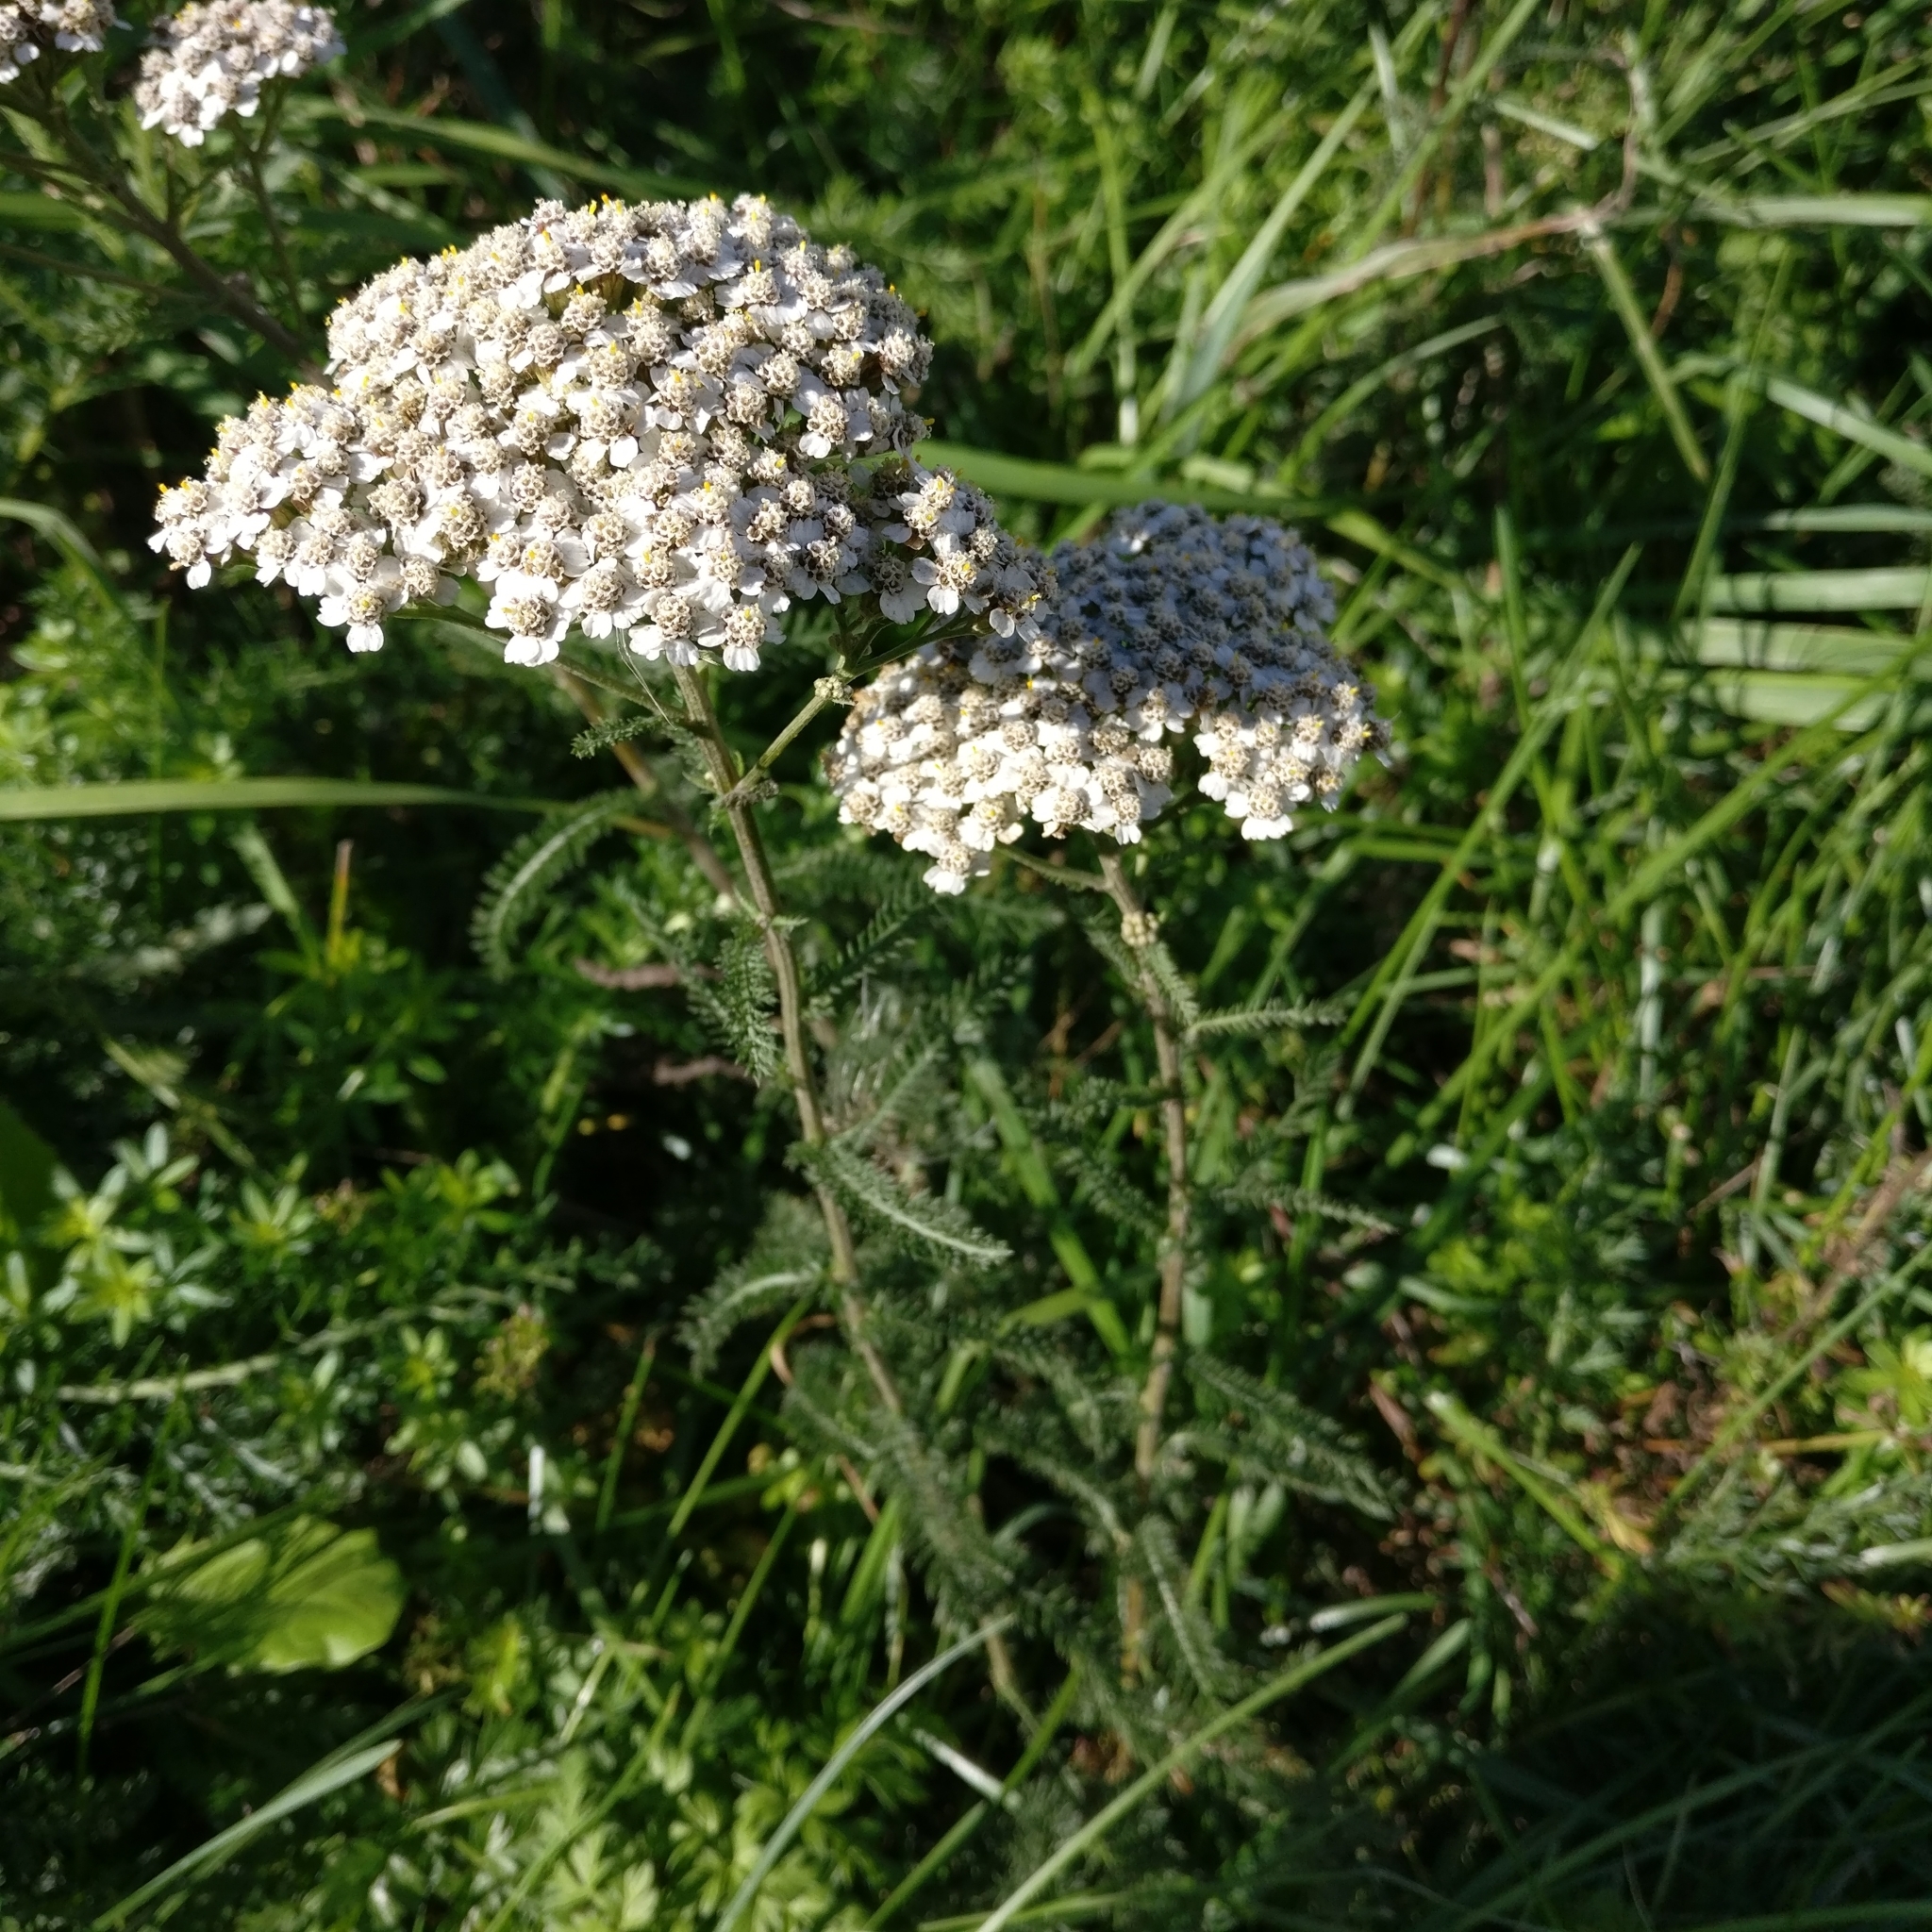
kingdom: Plantae
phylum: Tracheophyta
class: Magnoliopsida
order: Asterales
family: Asteraceae
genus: Achillea
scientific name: Achillea millefolium
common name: Yarrow
